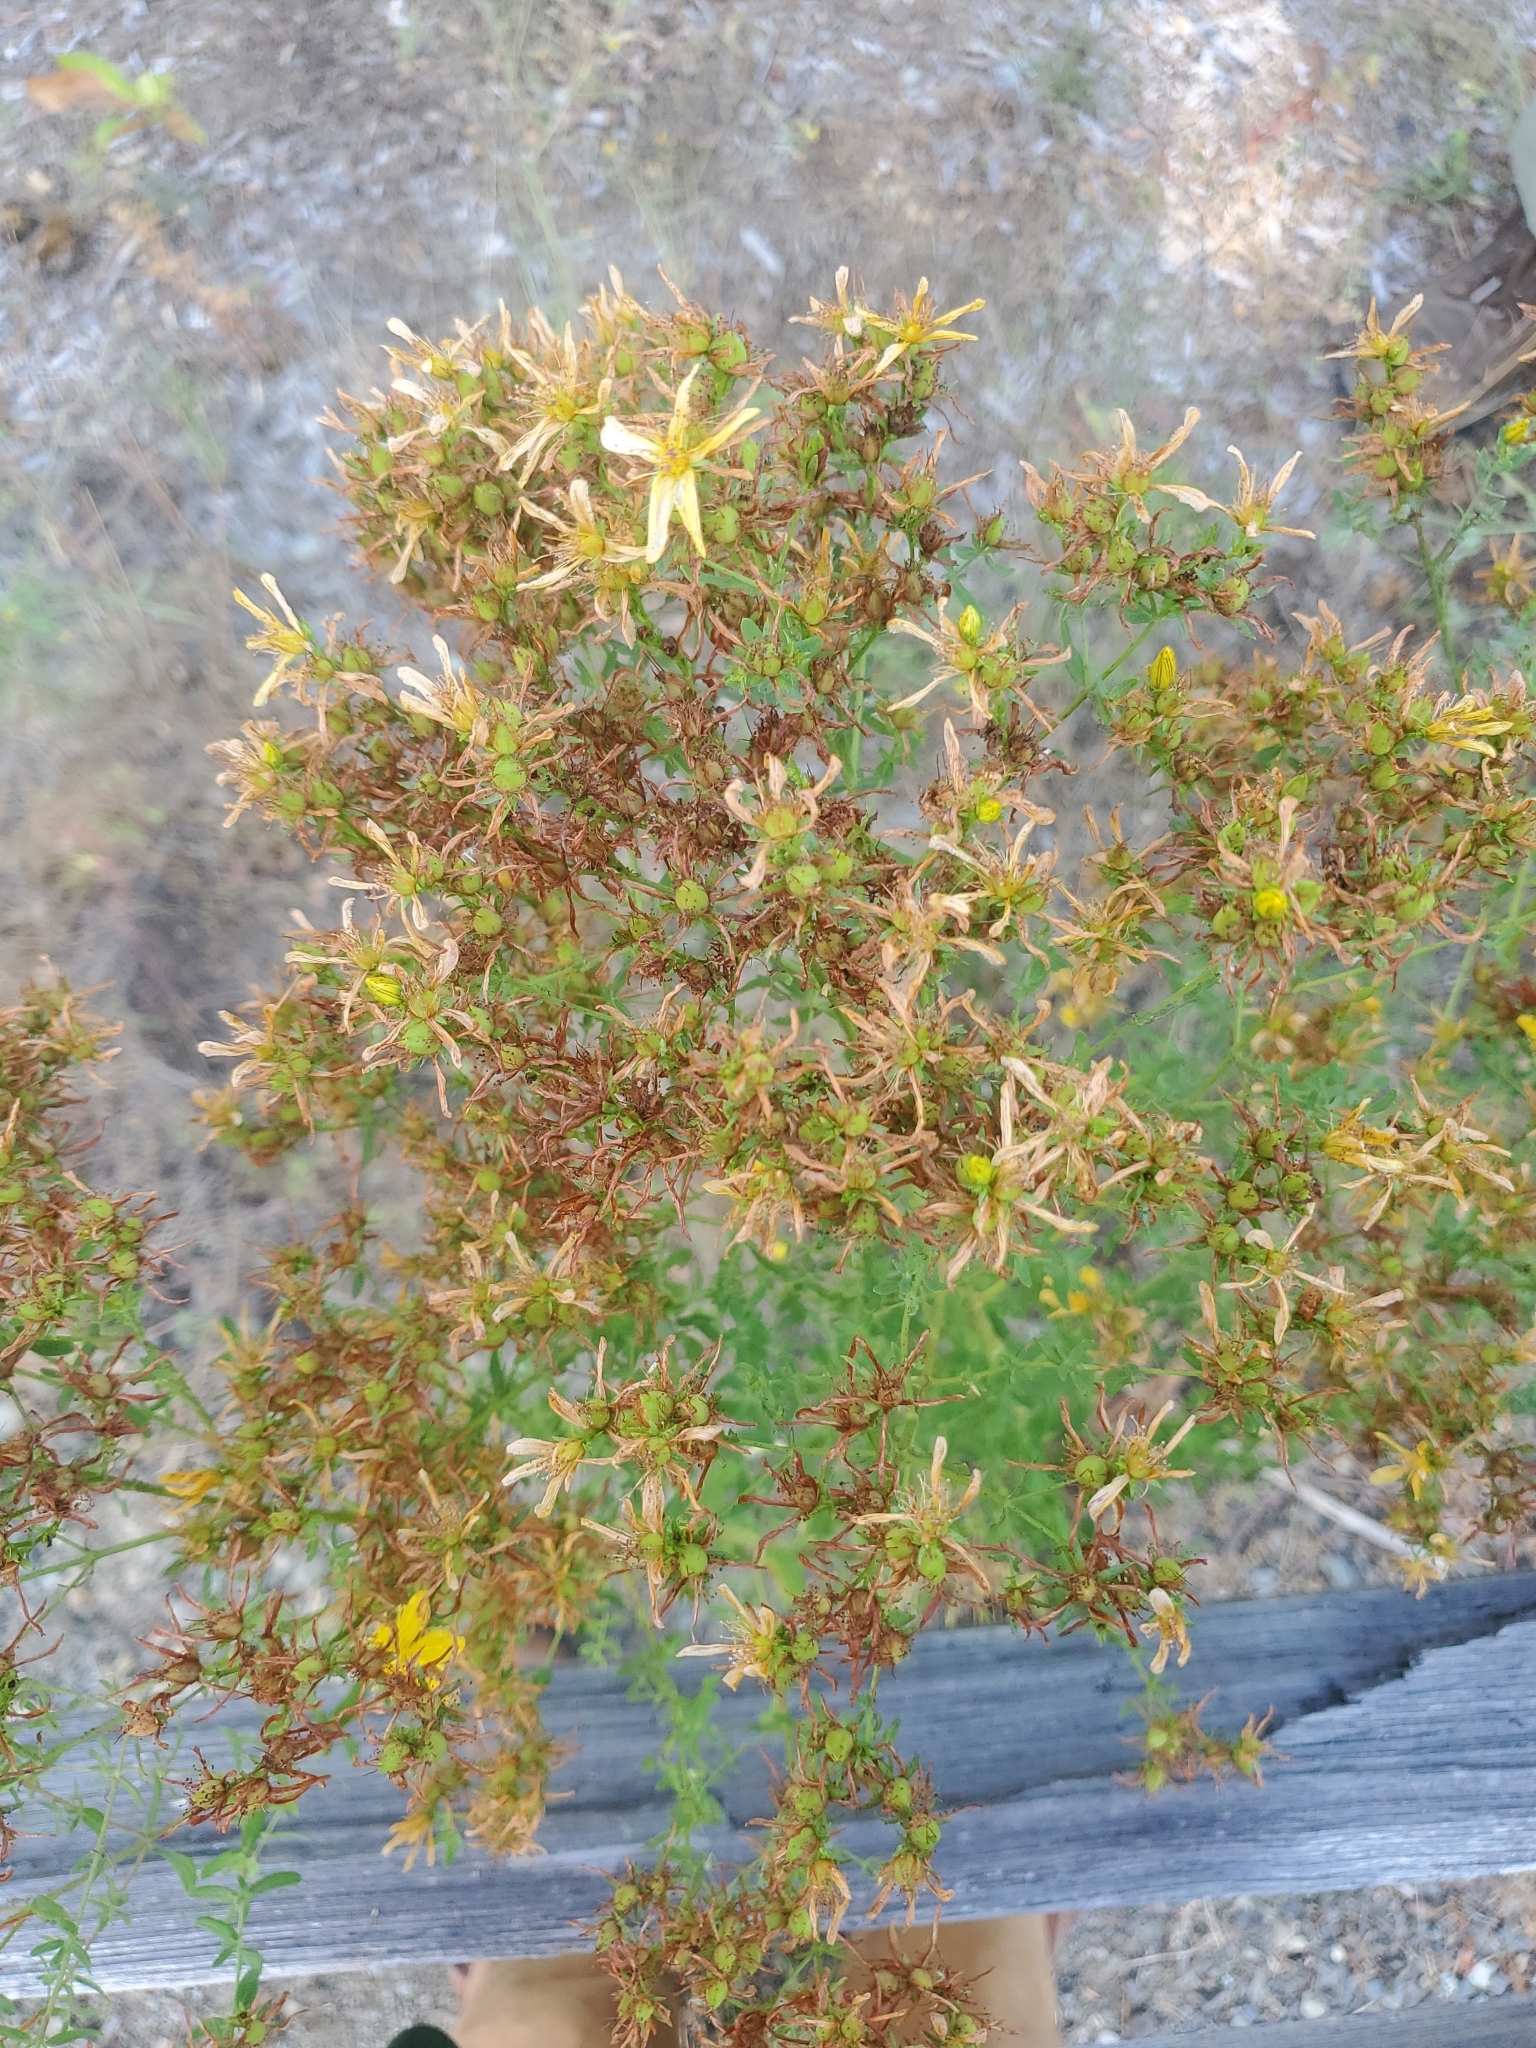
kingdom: Plantae
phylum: Tracheophyta
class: Magnoliopsida
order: Malpighiales
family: Hypericaceae
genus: Hypericum
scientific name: Hypericum perforatum
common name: Common st. johnswort
